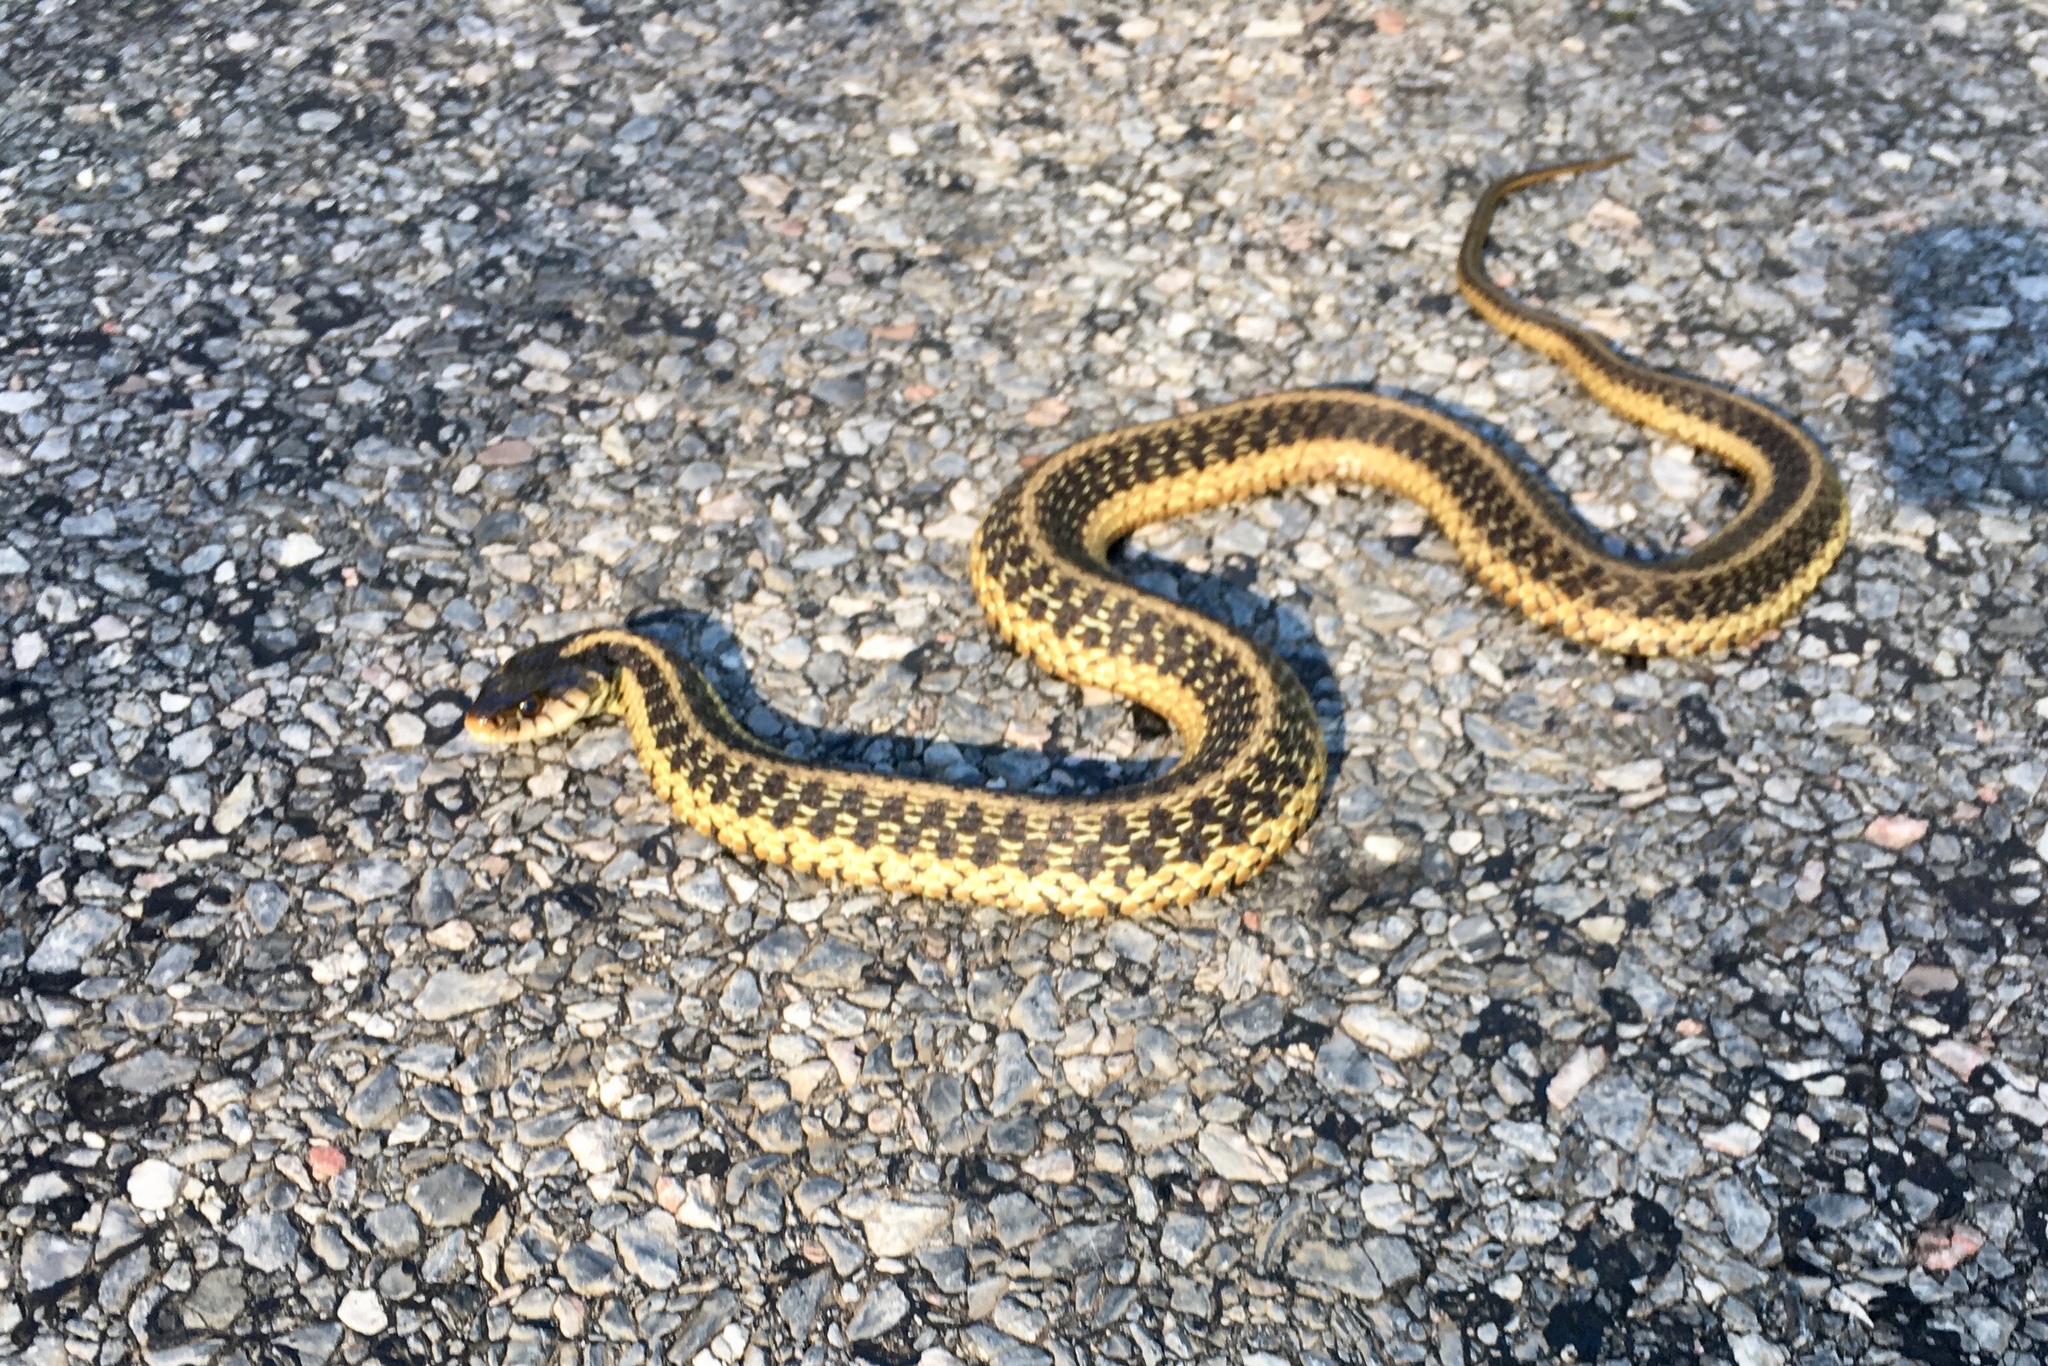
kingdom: Animalia
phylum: Chordata
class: Squamata
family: Colubridae
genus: Thamnophis
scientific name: Thamnophis sirtalis
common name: Common garter snake
